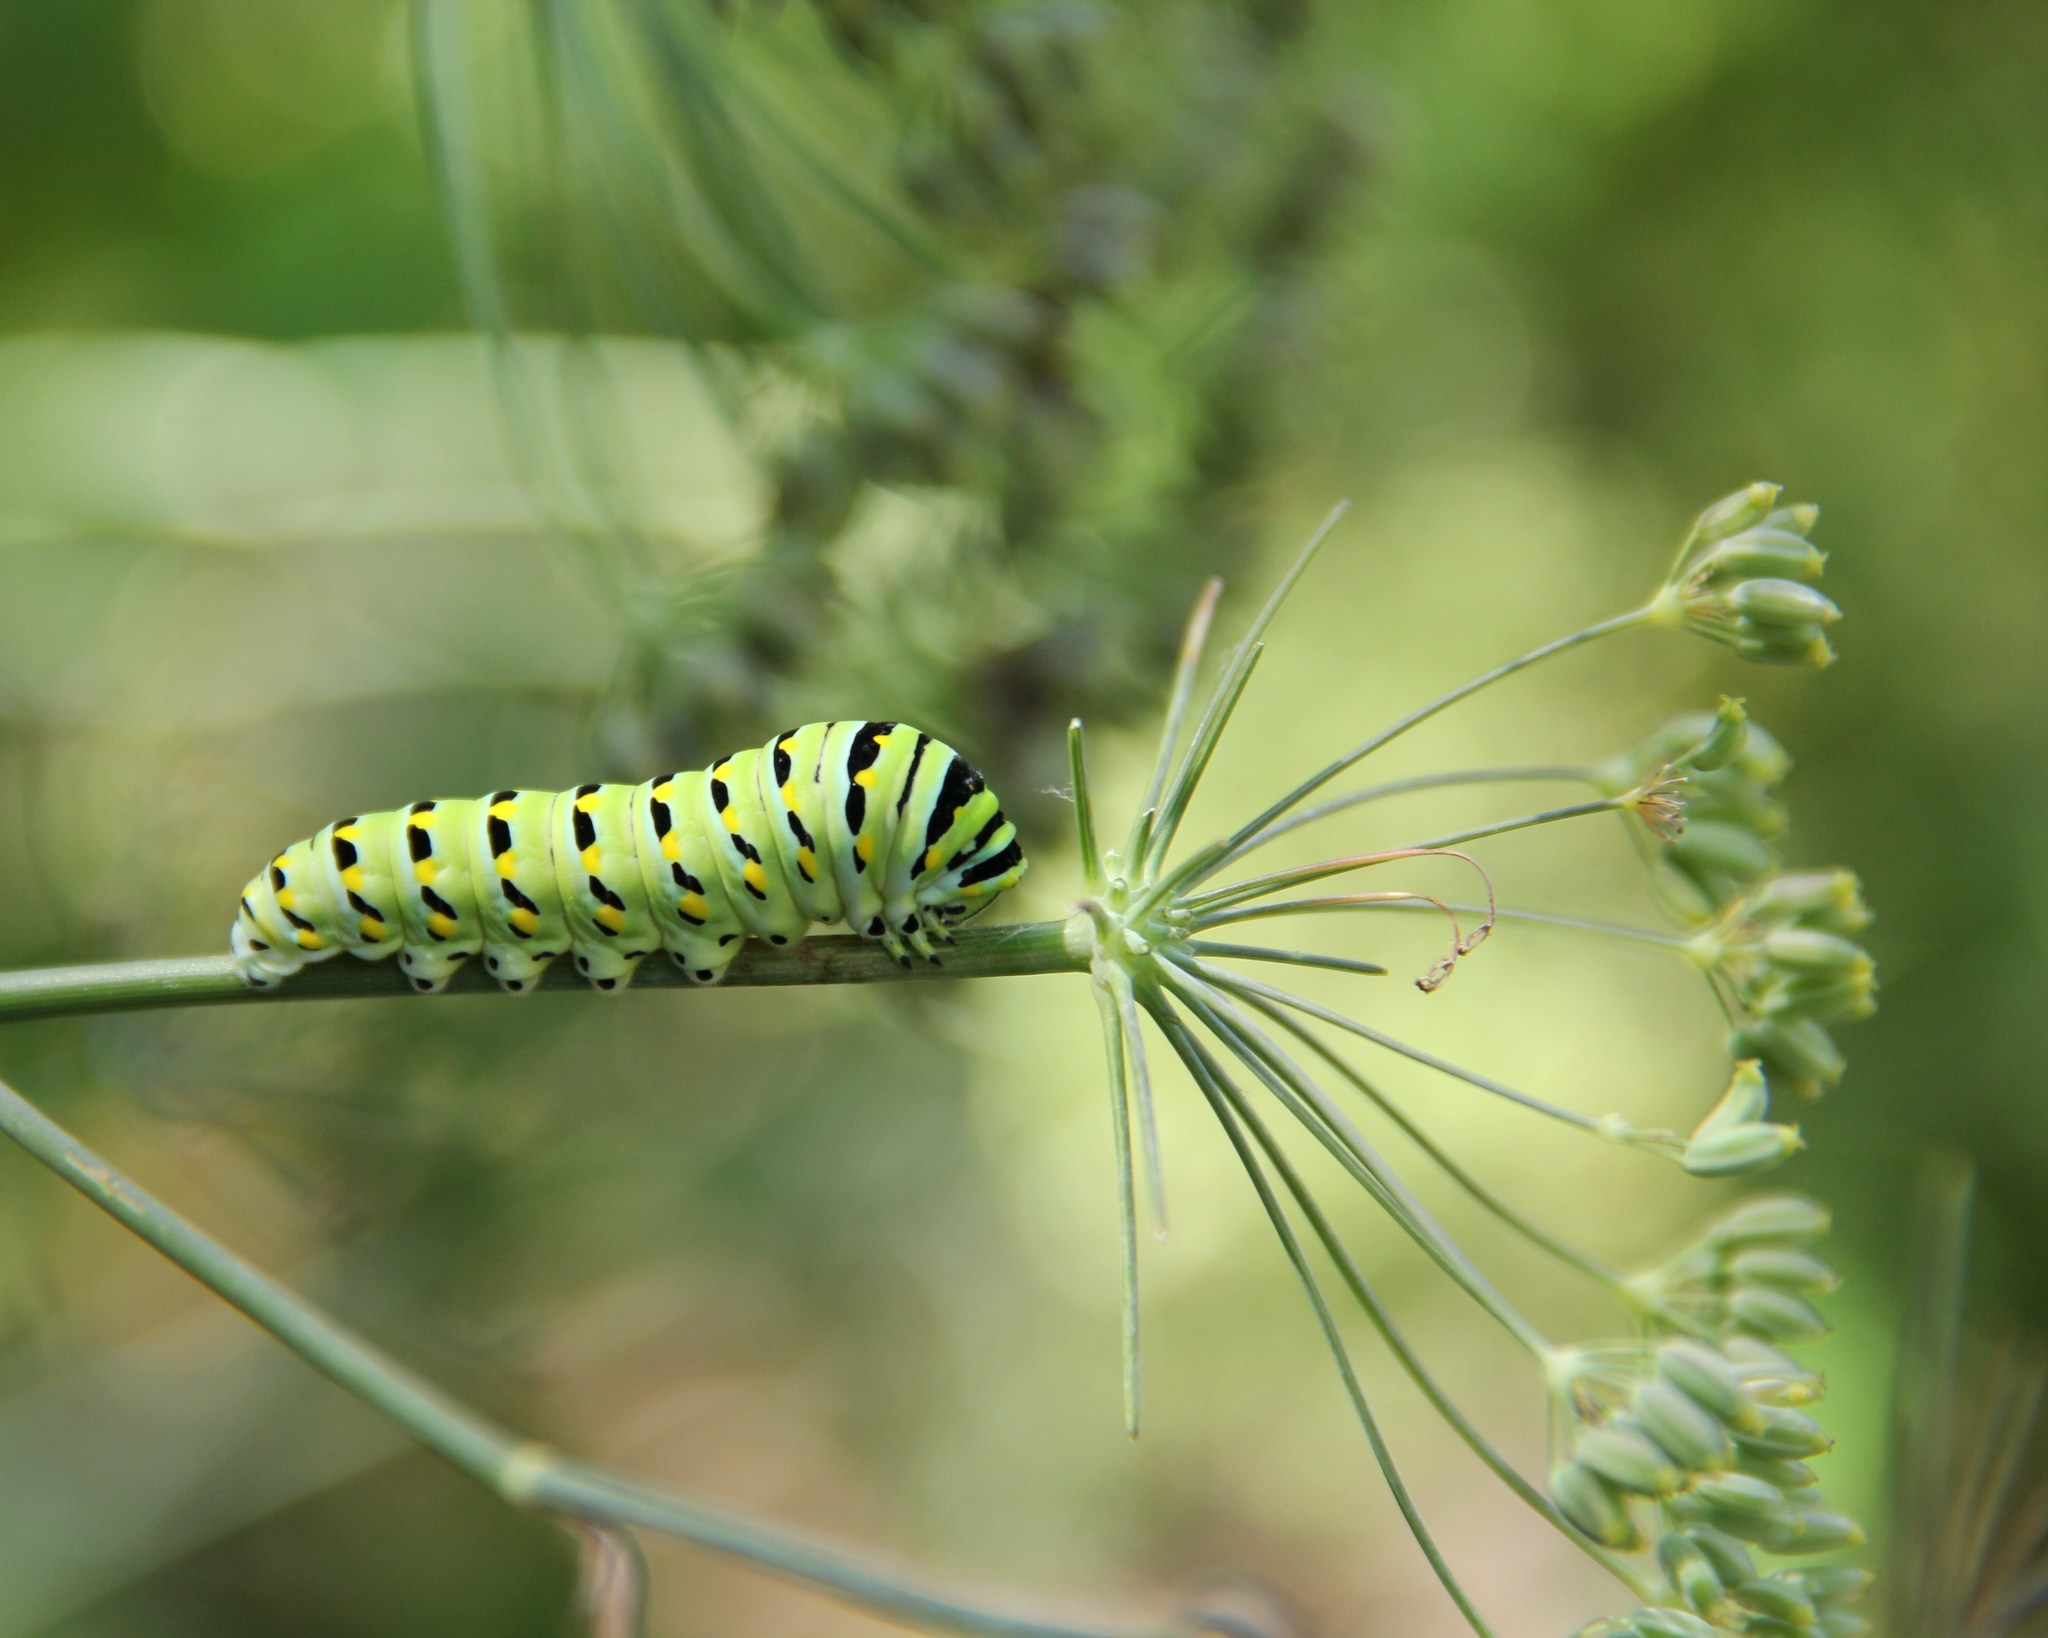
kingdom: Animalia
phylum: Arthropoda
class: Insecta
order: Lepidoptera
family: Papilionidae
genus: Papilio
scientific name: Papilio polyxenes
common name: Black swallowtail
